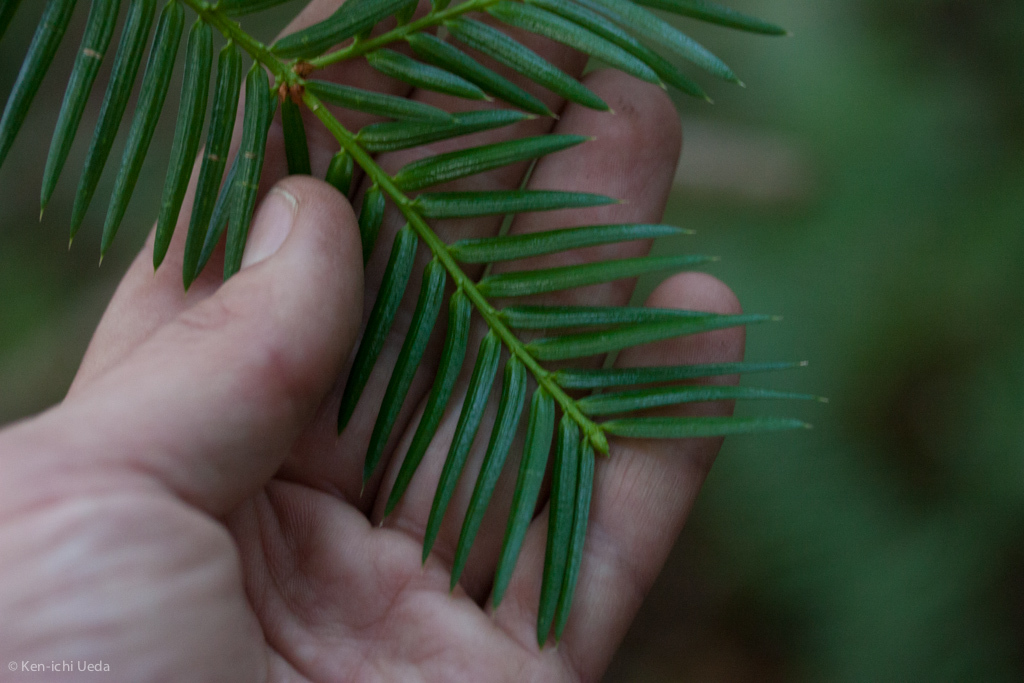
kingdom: Plantae
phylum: Tracheophyta
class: Pinopsida
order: Pinales
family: Taxaceae
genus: Torreya
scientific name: Torreya californica
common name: California torreya
